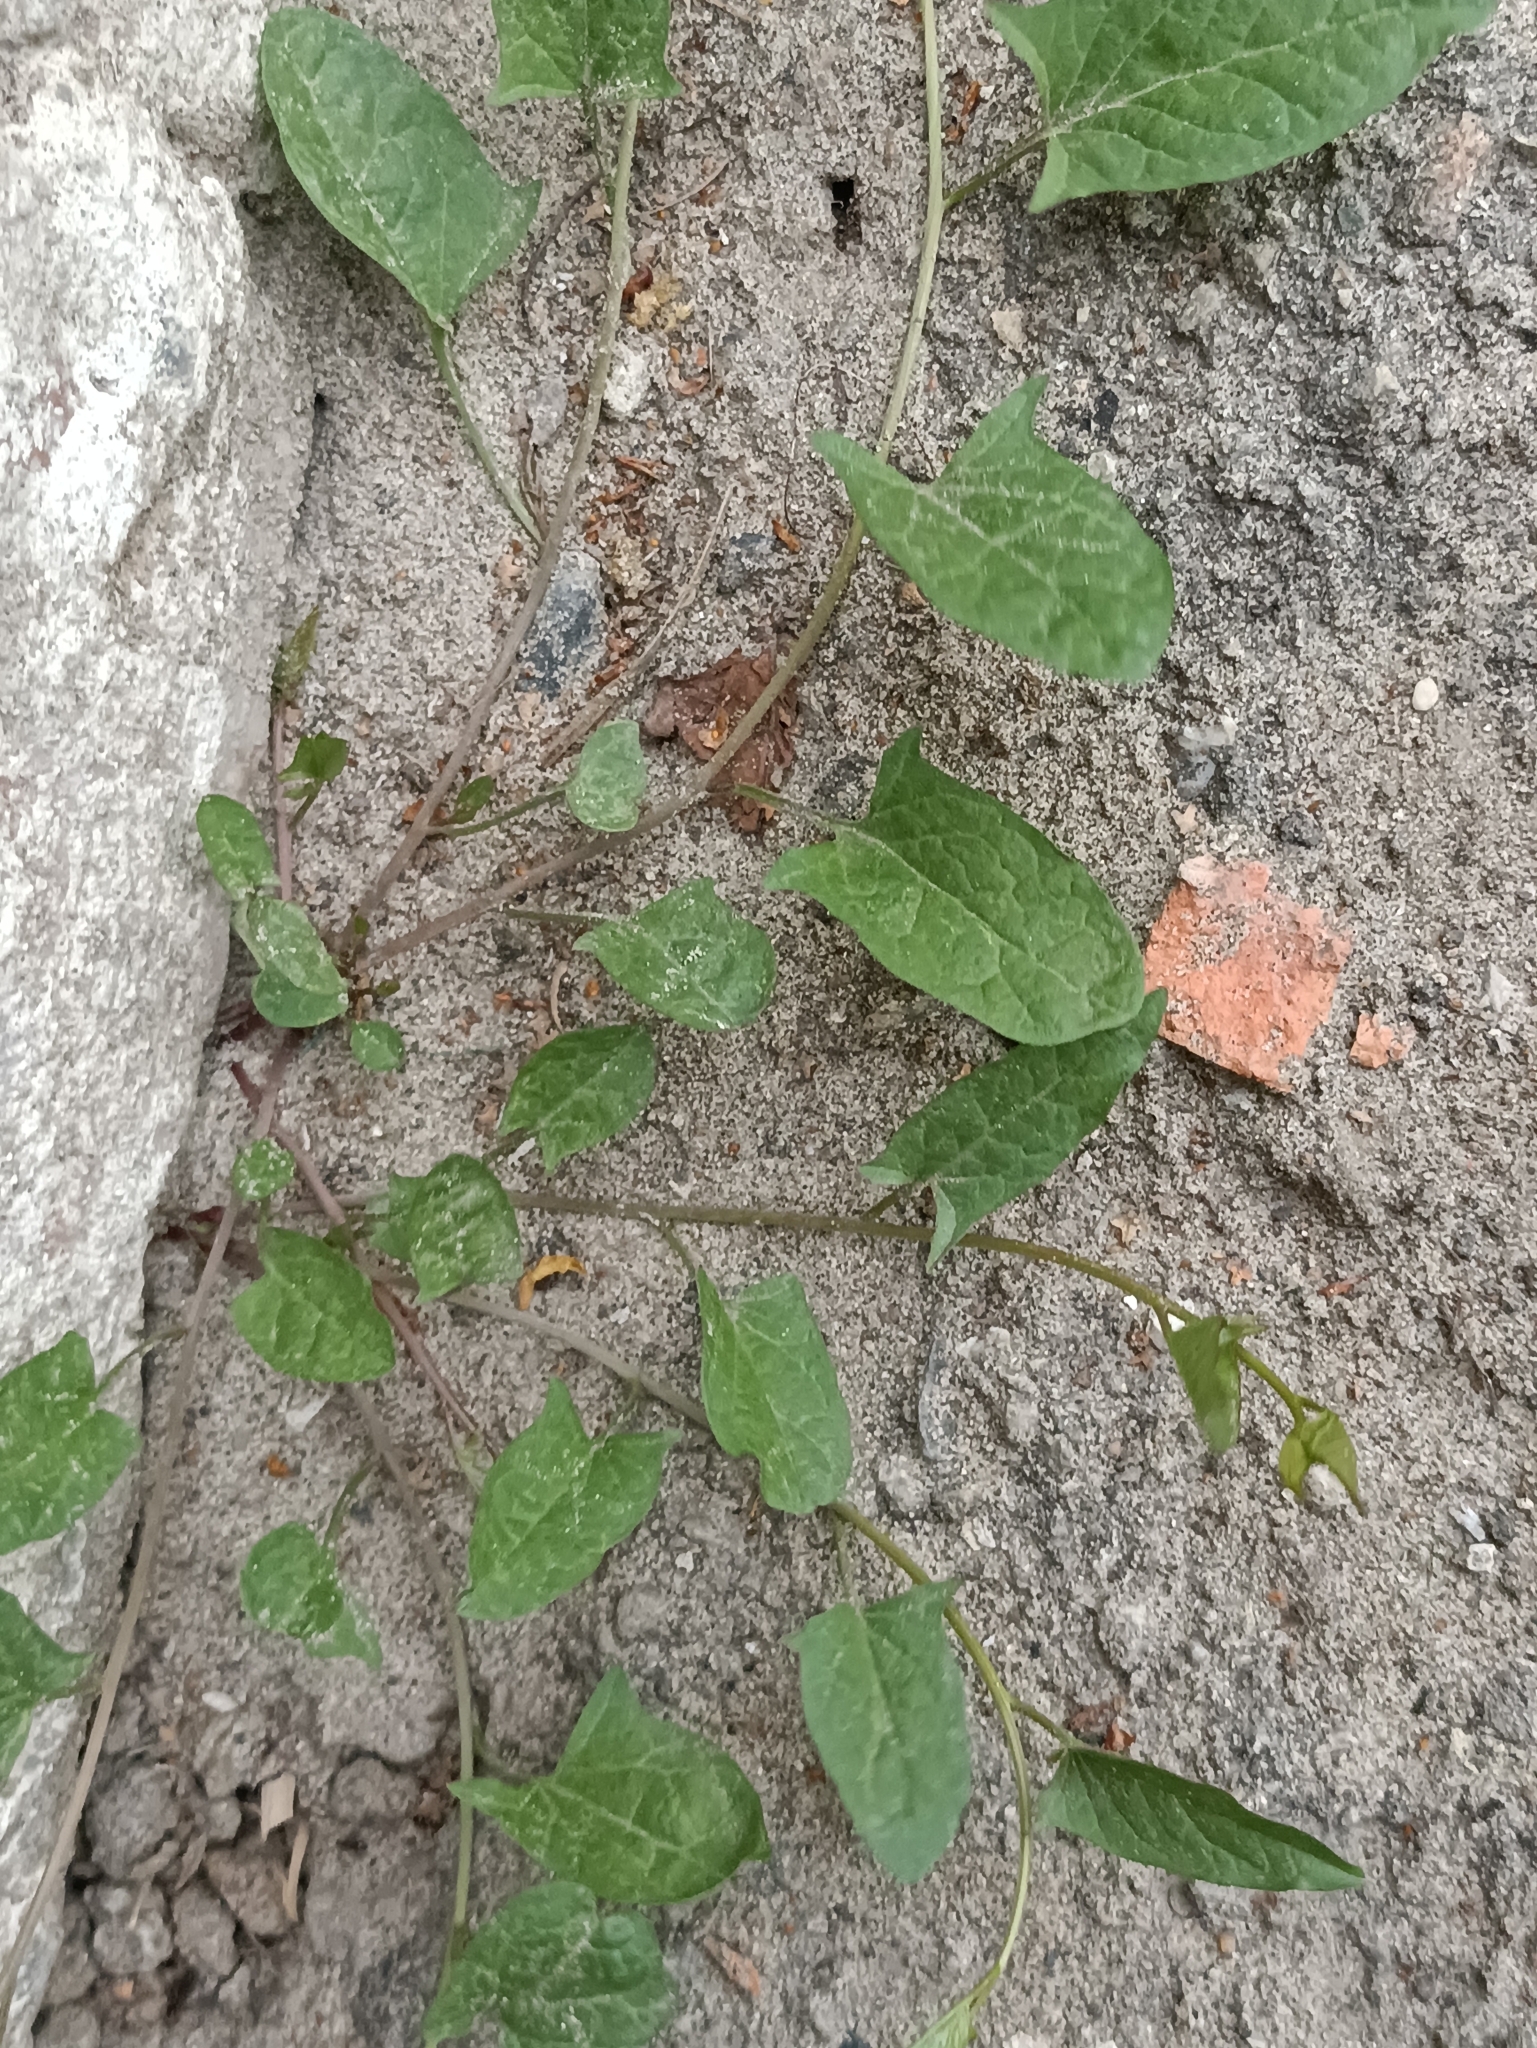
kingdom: Plantae
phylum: Tracheophyta
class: Magnoliopsida
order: Solanales
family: Convolvulaceae
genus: Convolvulus
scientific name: Convolvulus arvensis
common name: Field bindweed
